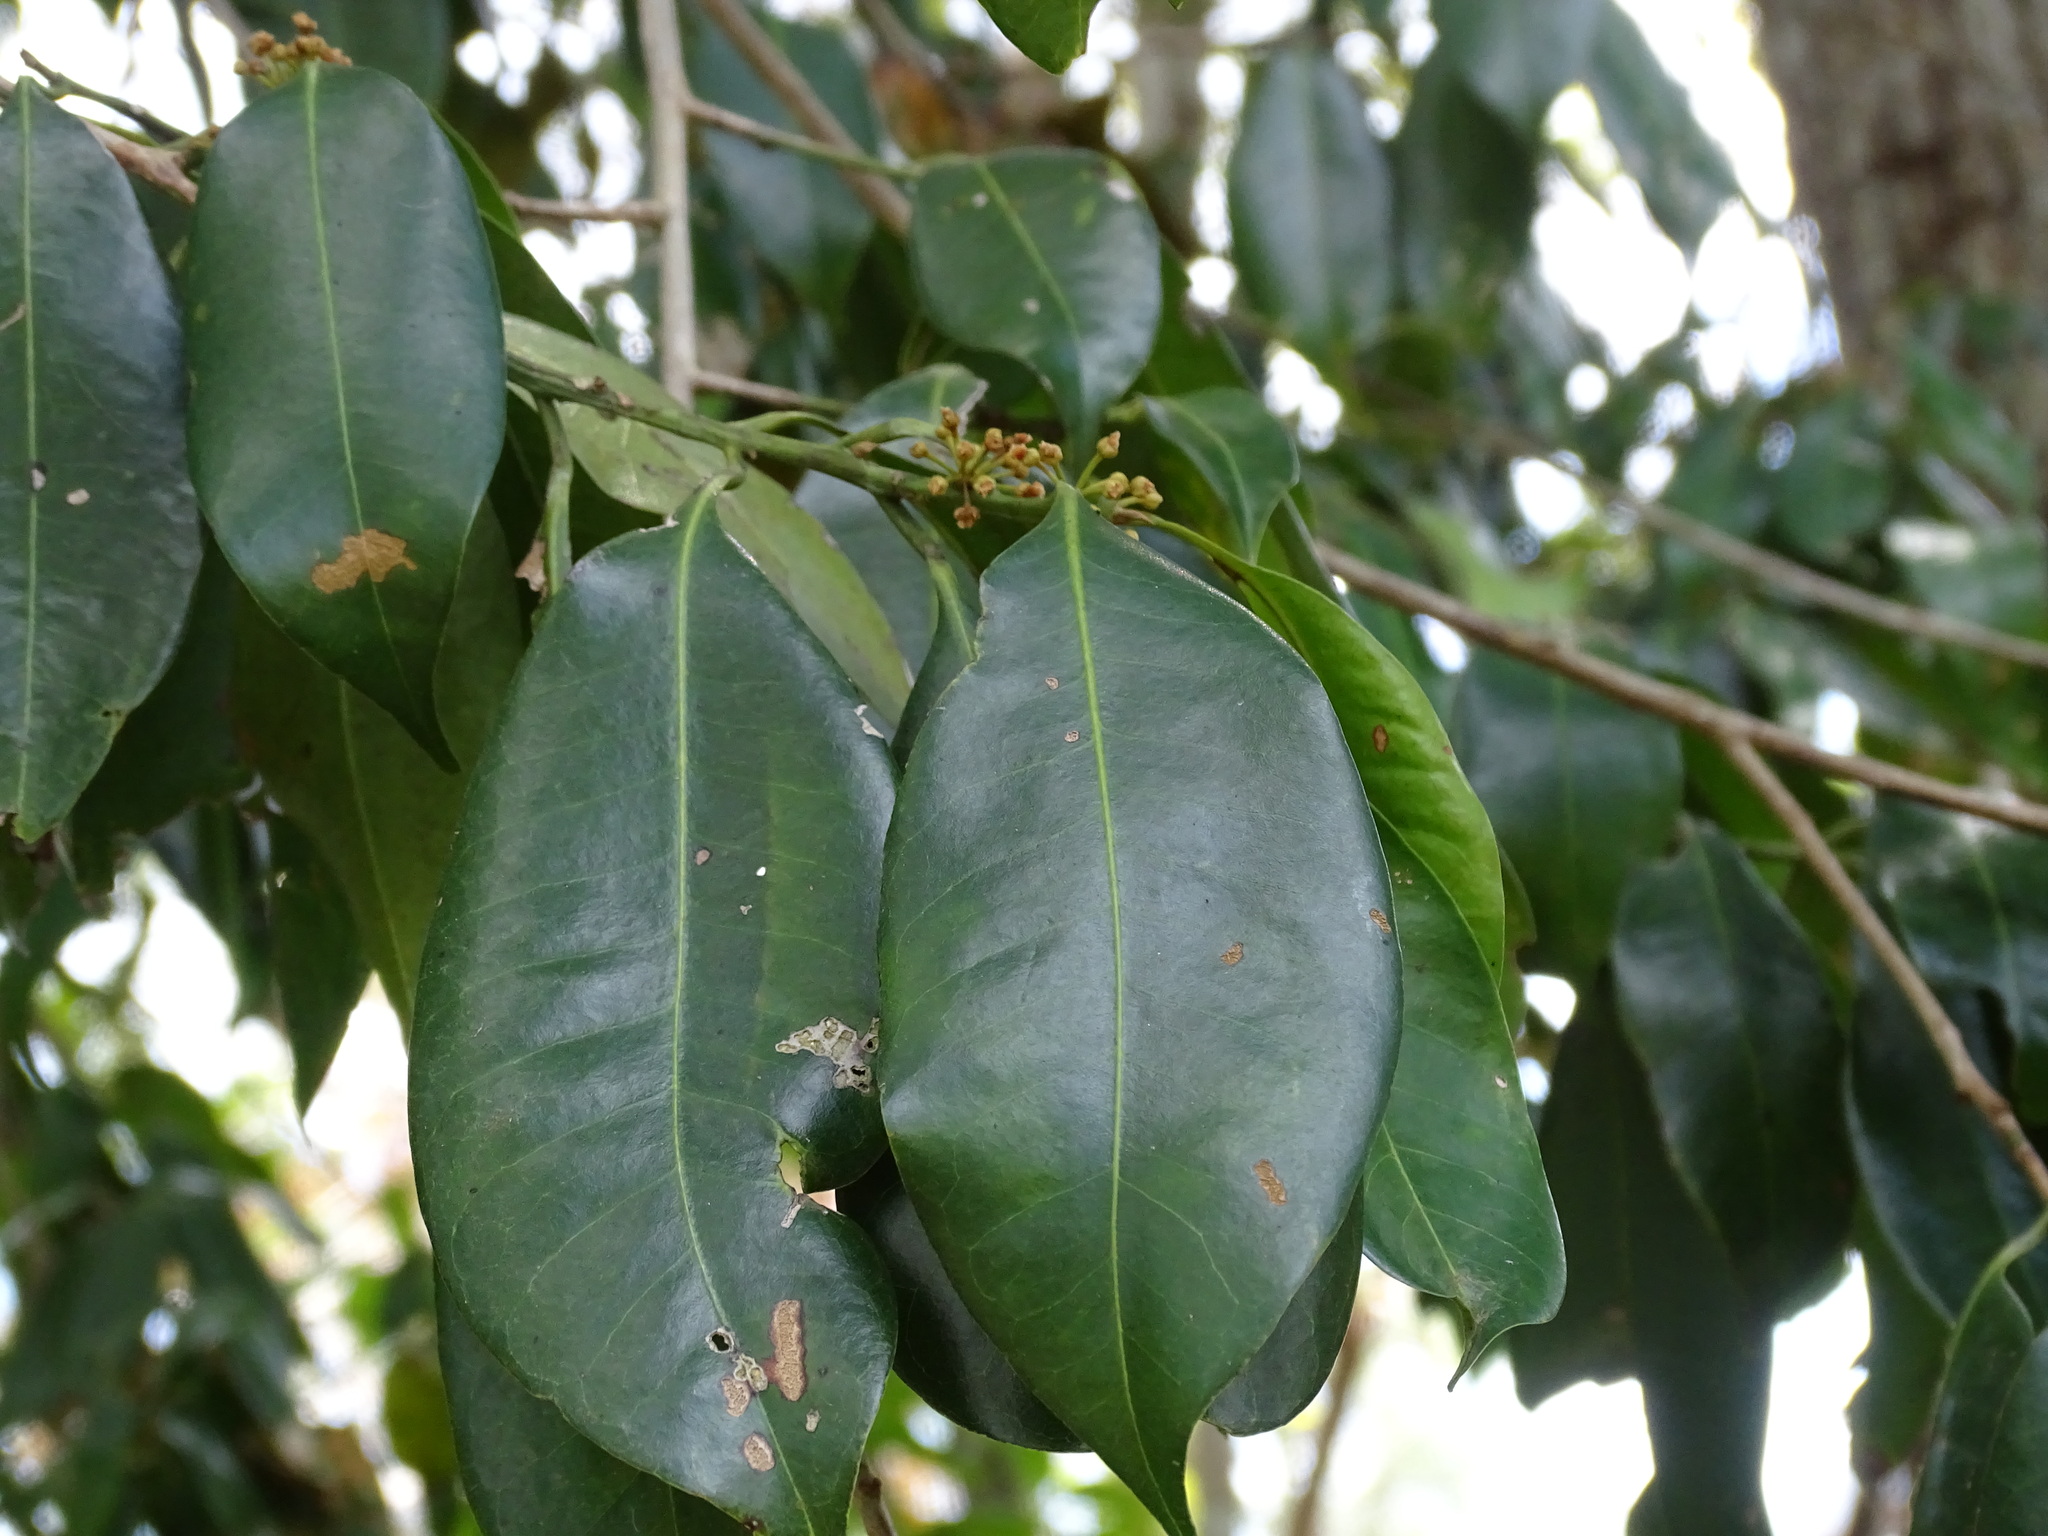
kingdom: Plantae
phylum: Tracheophyta
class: Magnoliopsida
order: Ericales
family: Sapotaceae
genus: Pouteria
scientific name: Pouteria reticulata
